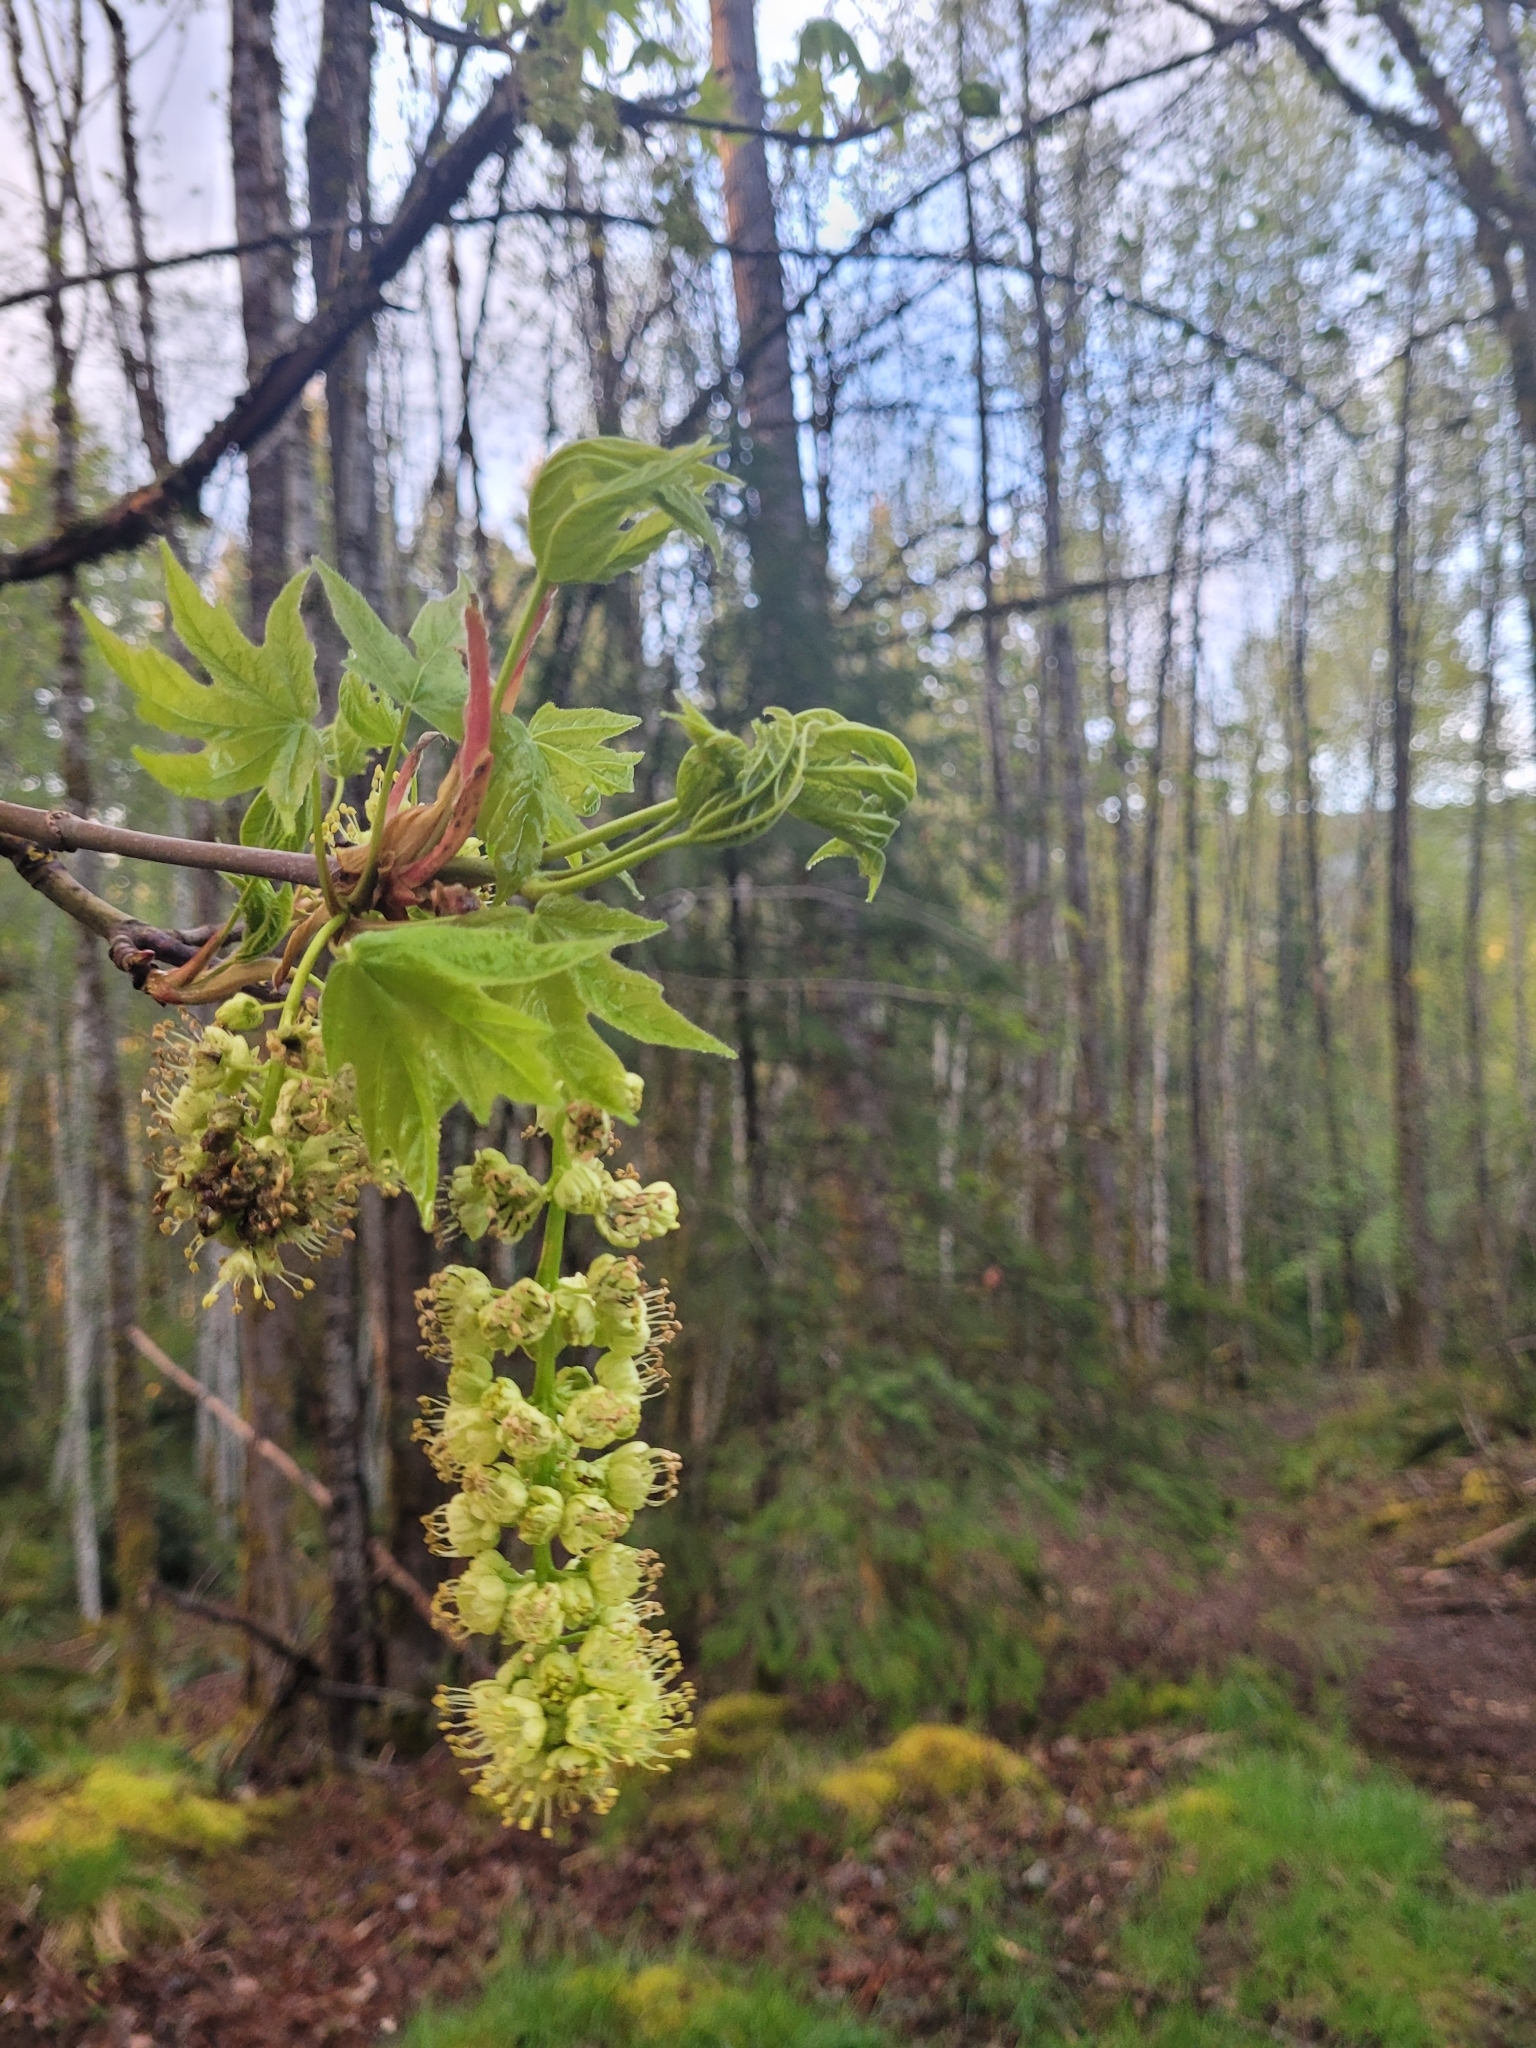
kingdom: Plantae
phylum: Tracheophyta
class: Magnoliopsida
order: Sapindales
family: Sapindaceae
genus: Acer
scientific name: Acer macrophyllum
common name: Oregon maple
